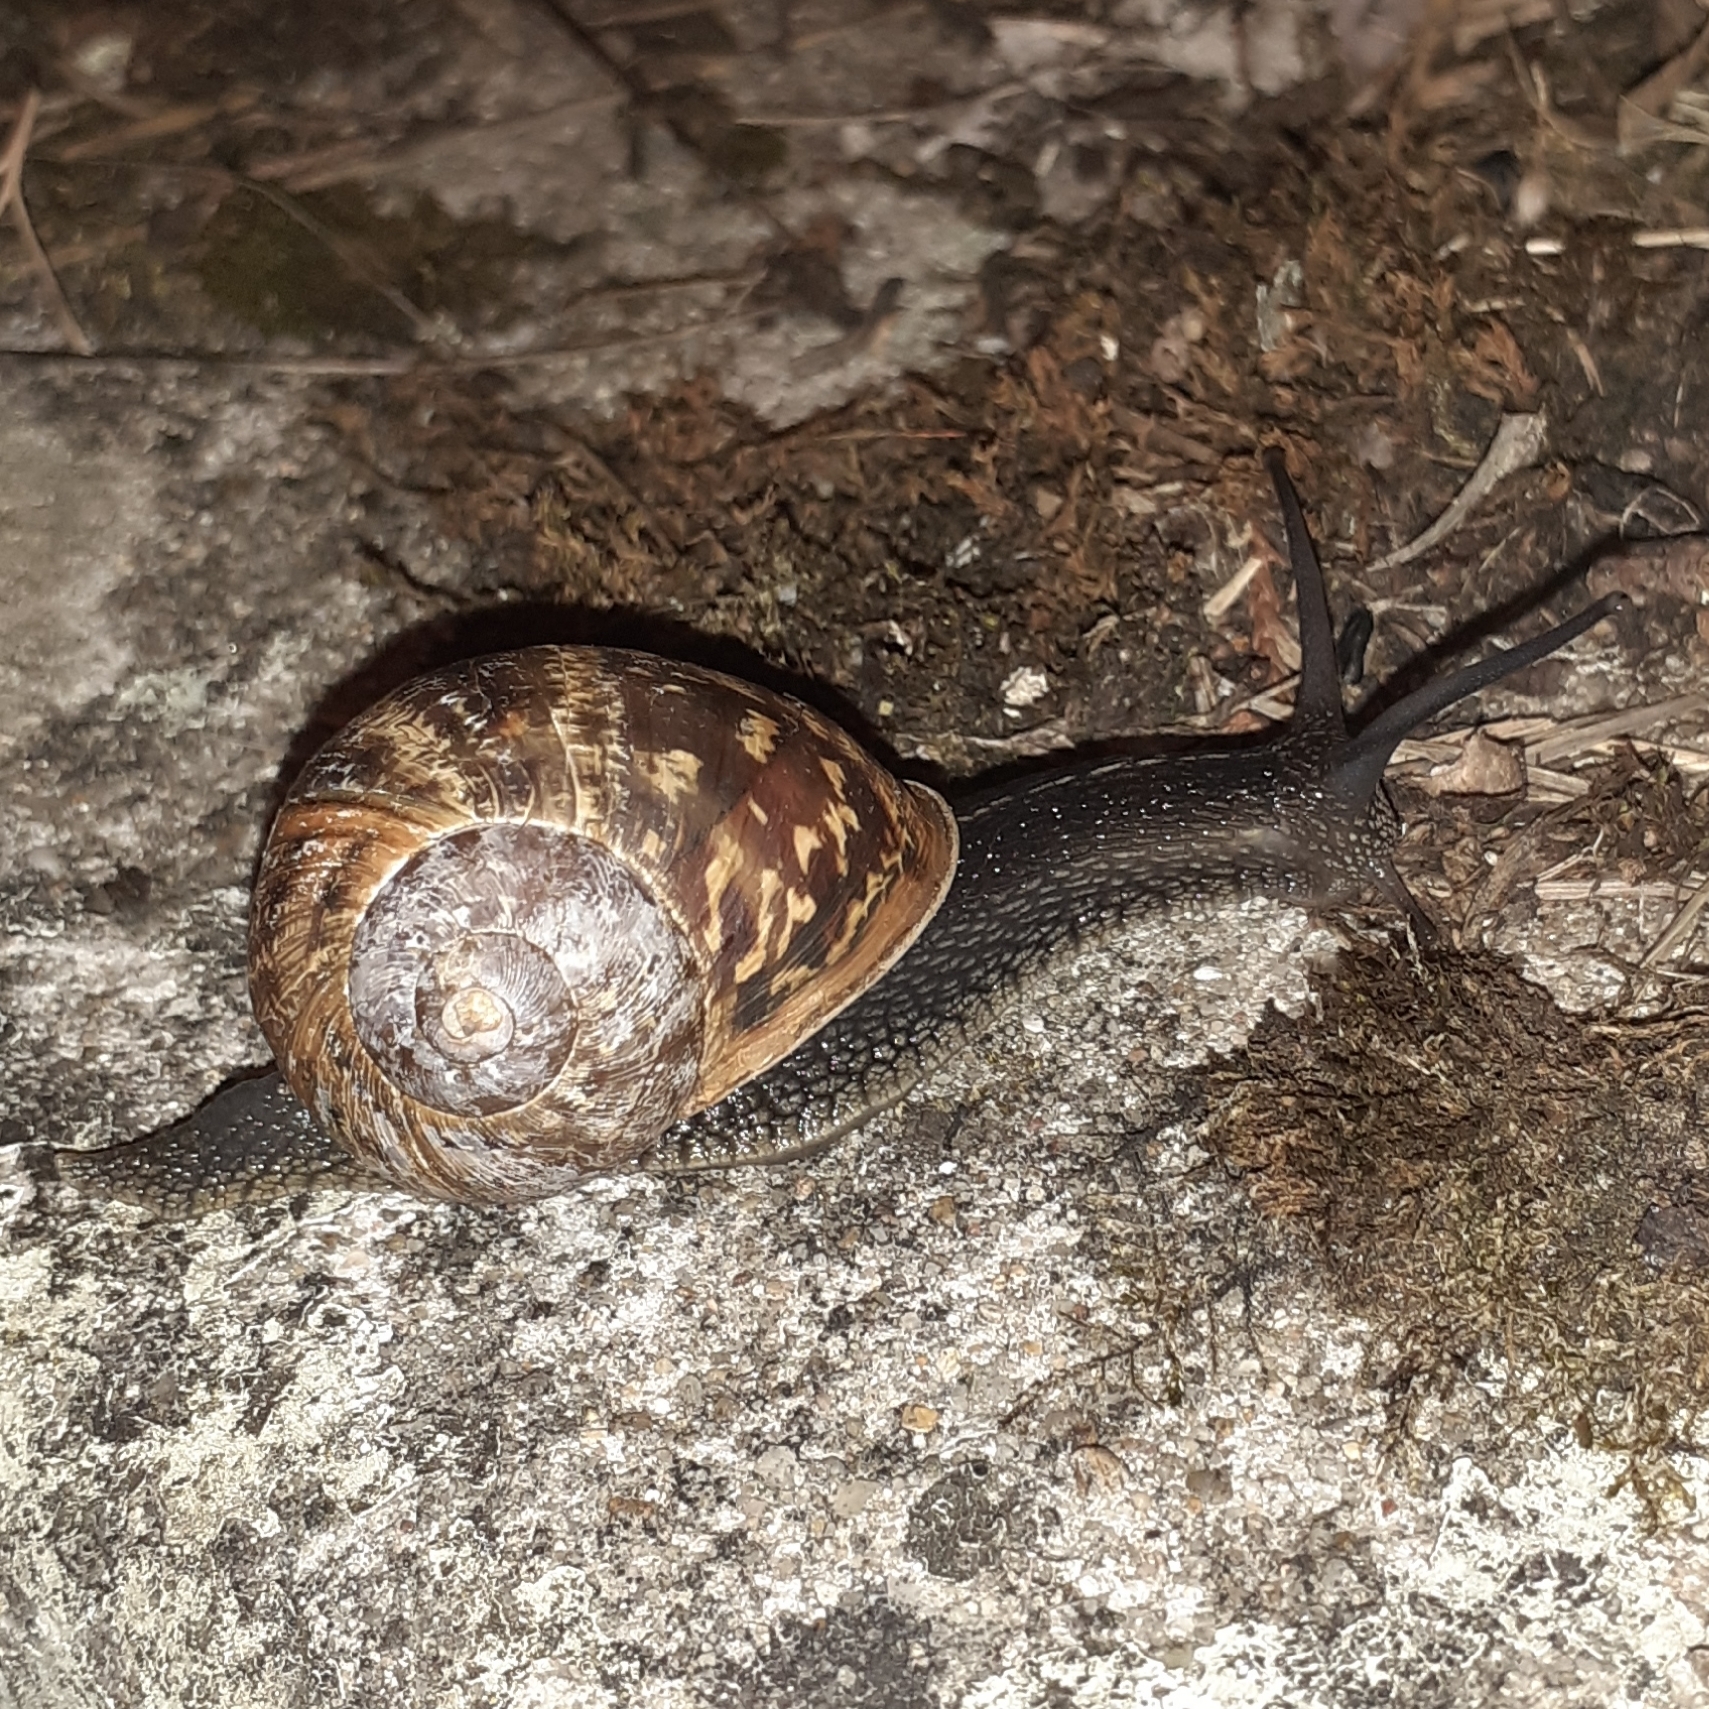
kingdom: Animalia
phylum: Mollusca
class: Gastropoda
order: Stylommatophora
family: Helicidae
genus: Cornu
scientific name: Cornu aspersum
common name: Brown garden snail
